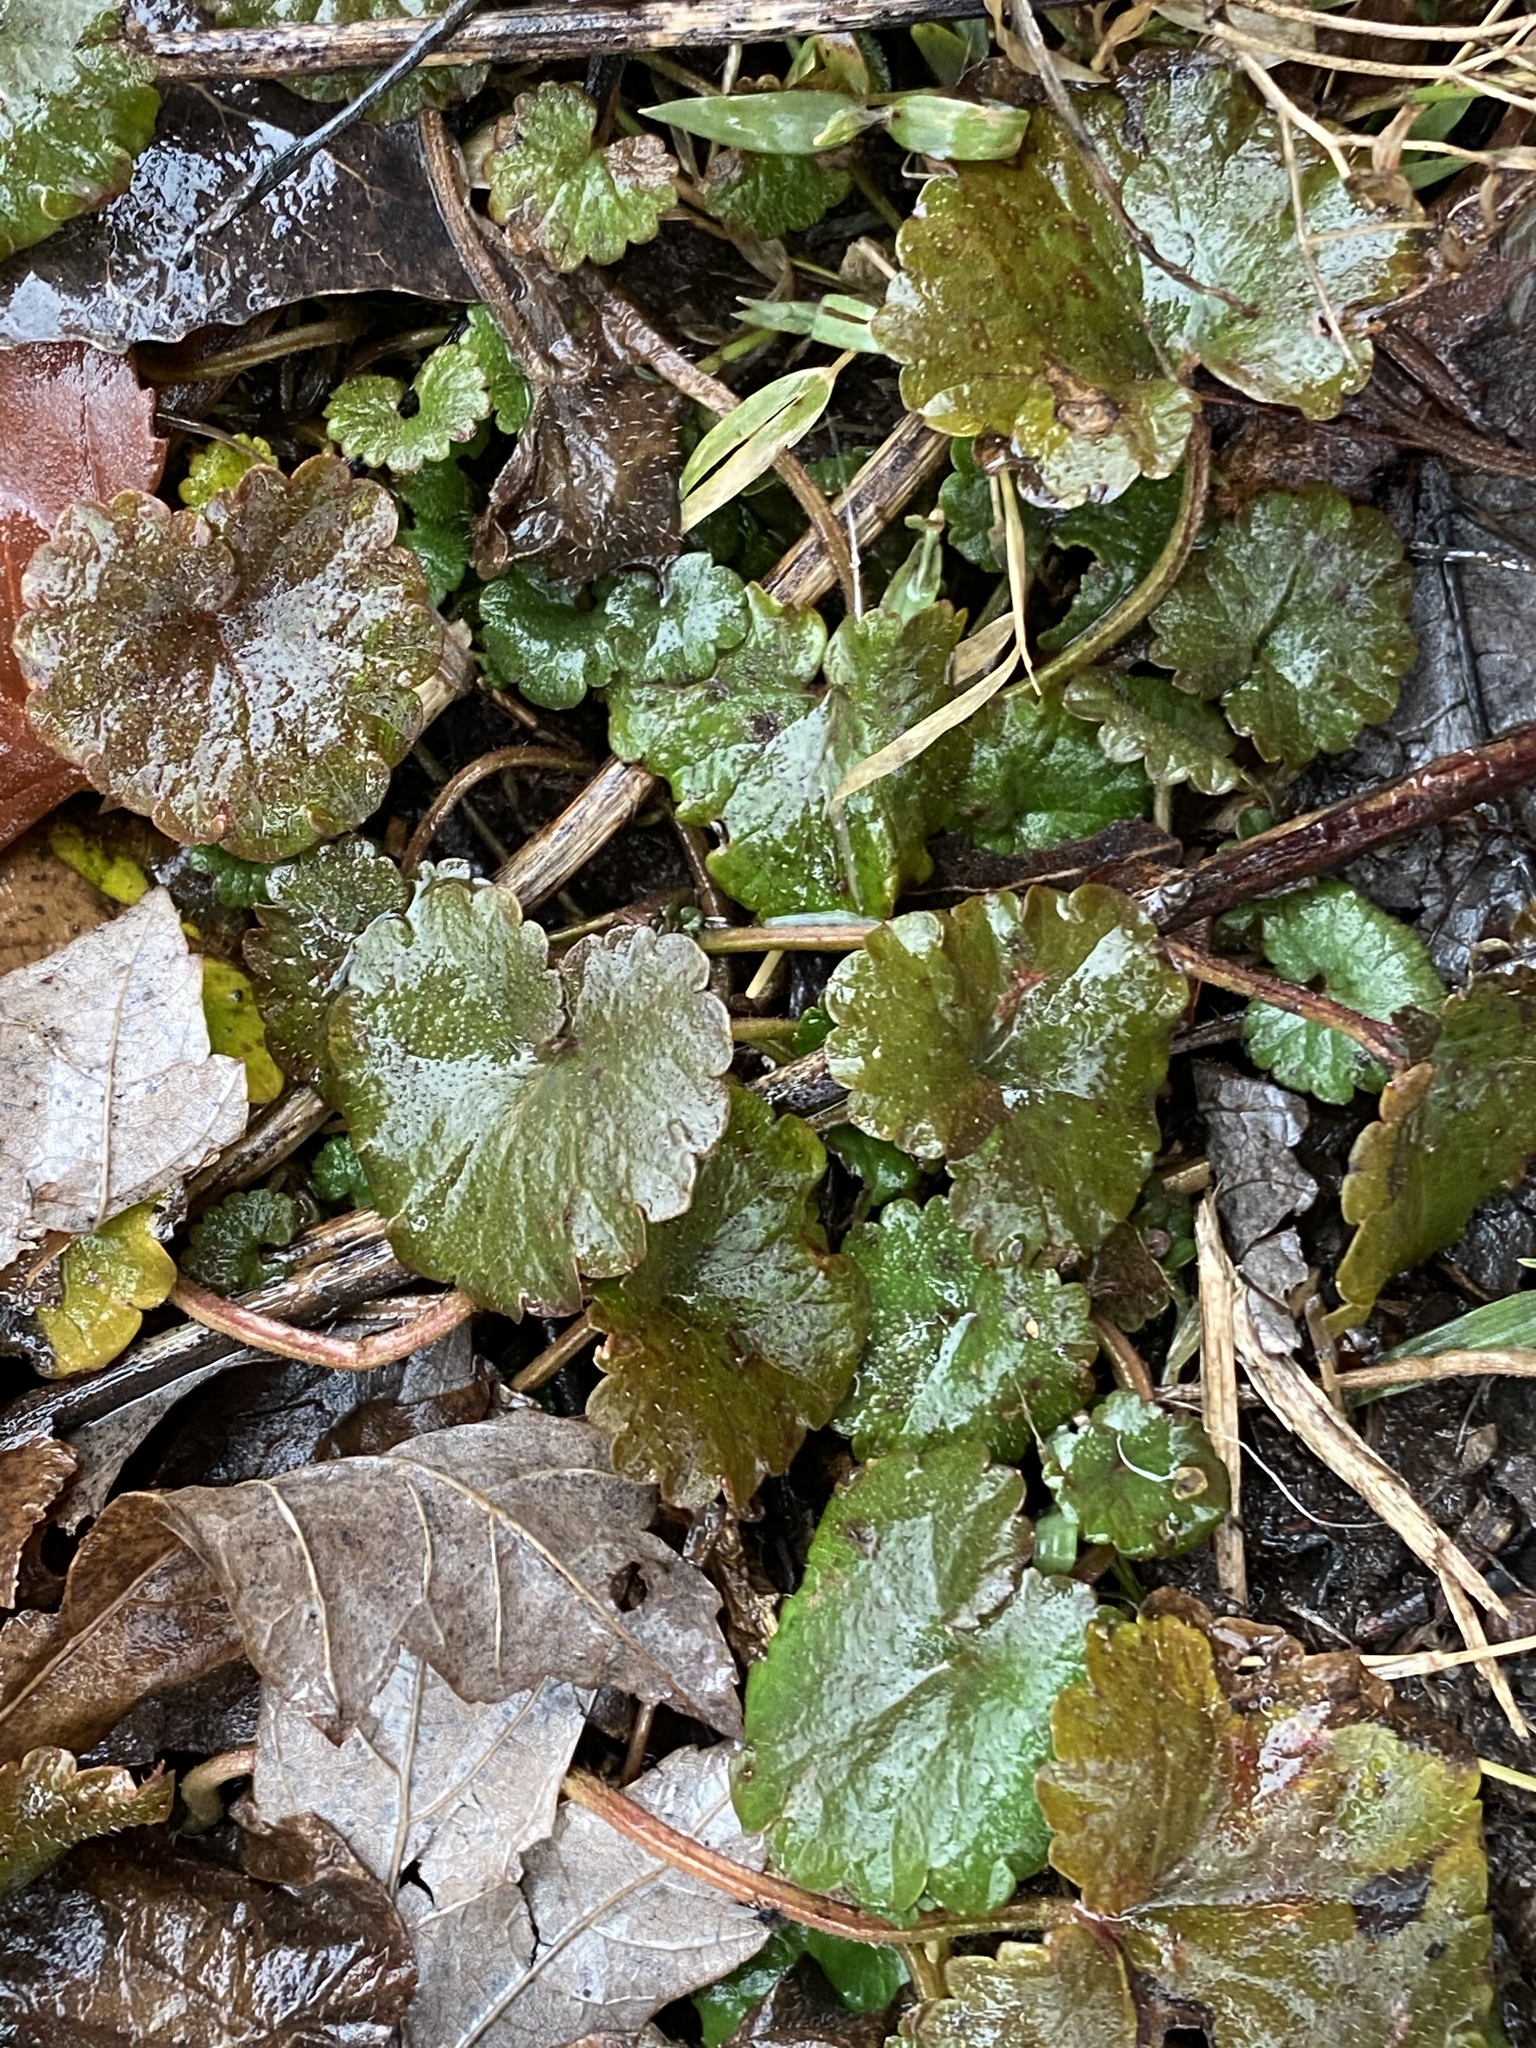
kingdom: Plantae
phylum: Tracheophyta
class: Magnoliopsida
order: Lamiales
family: Lamiaceae
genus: Glechoma
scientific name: Glechoma hederacea
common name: Ground ivy
